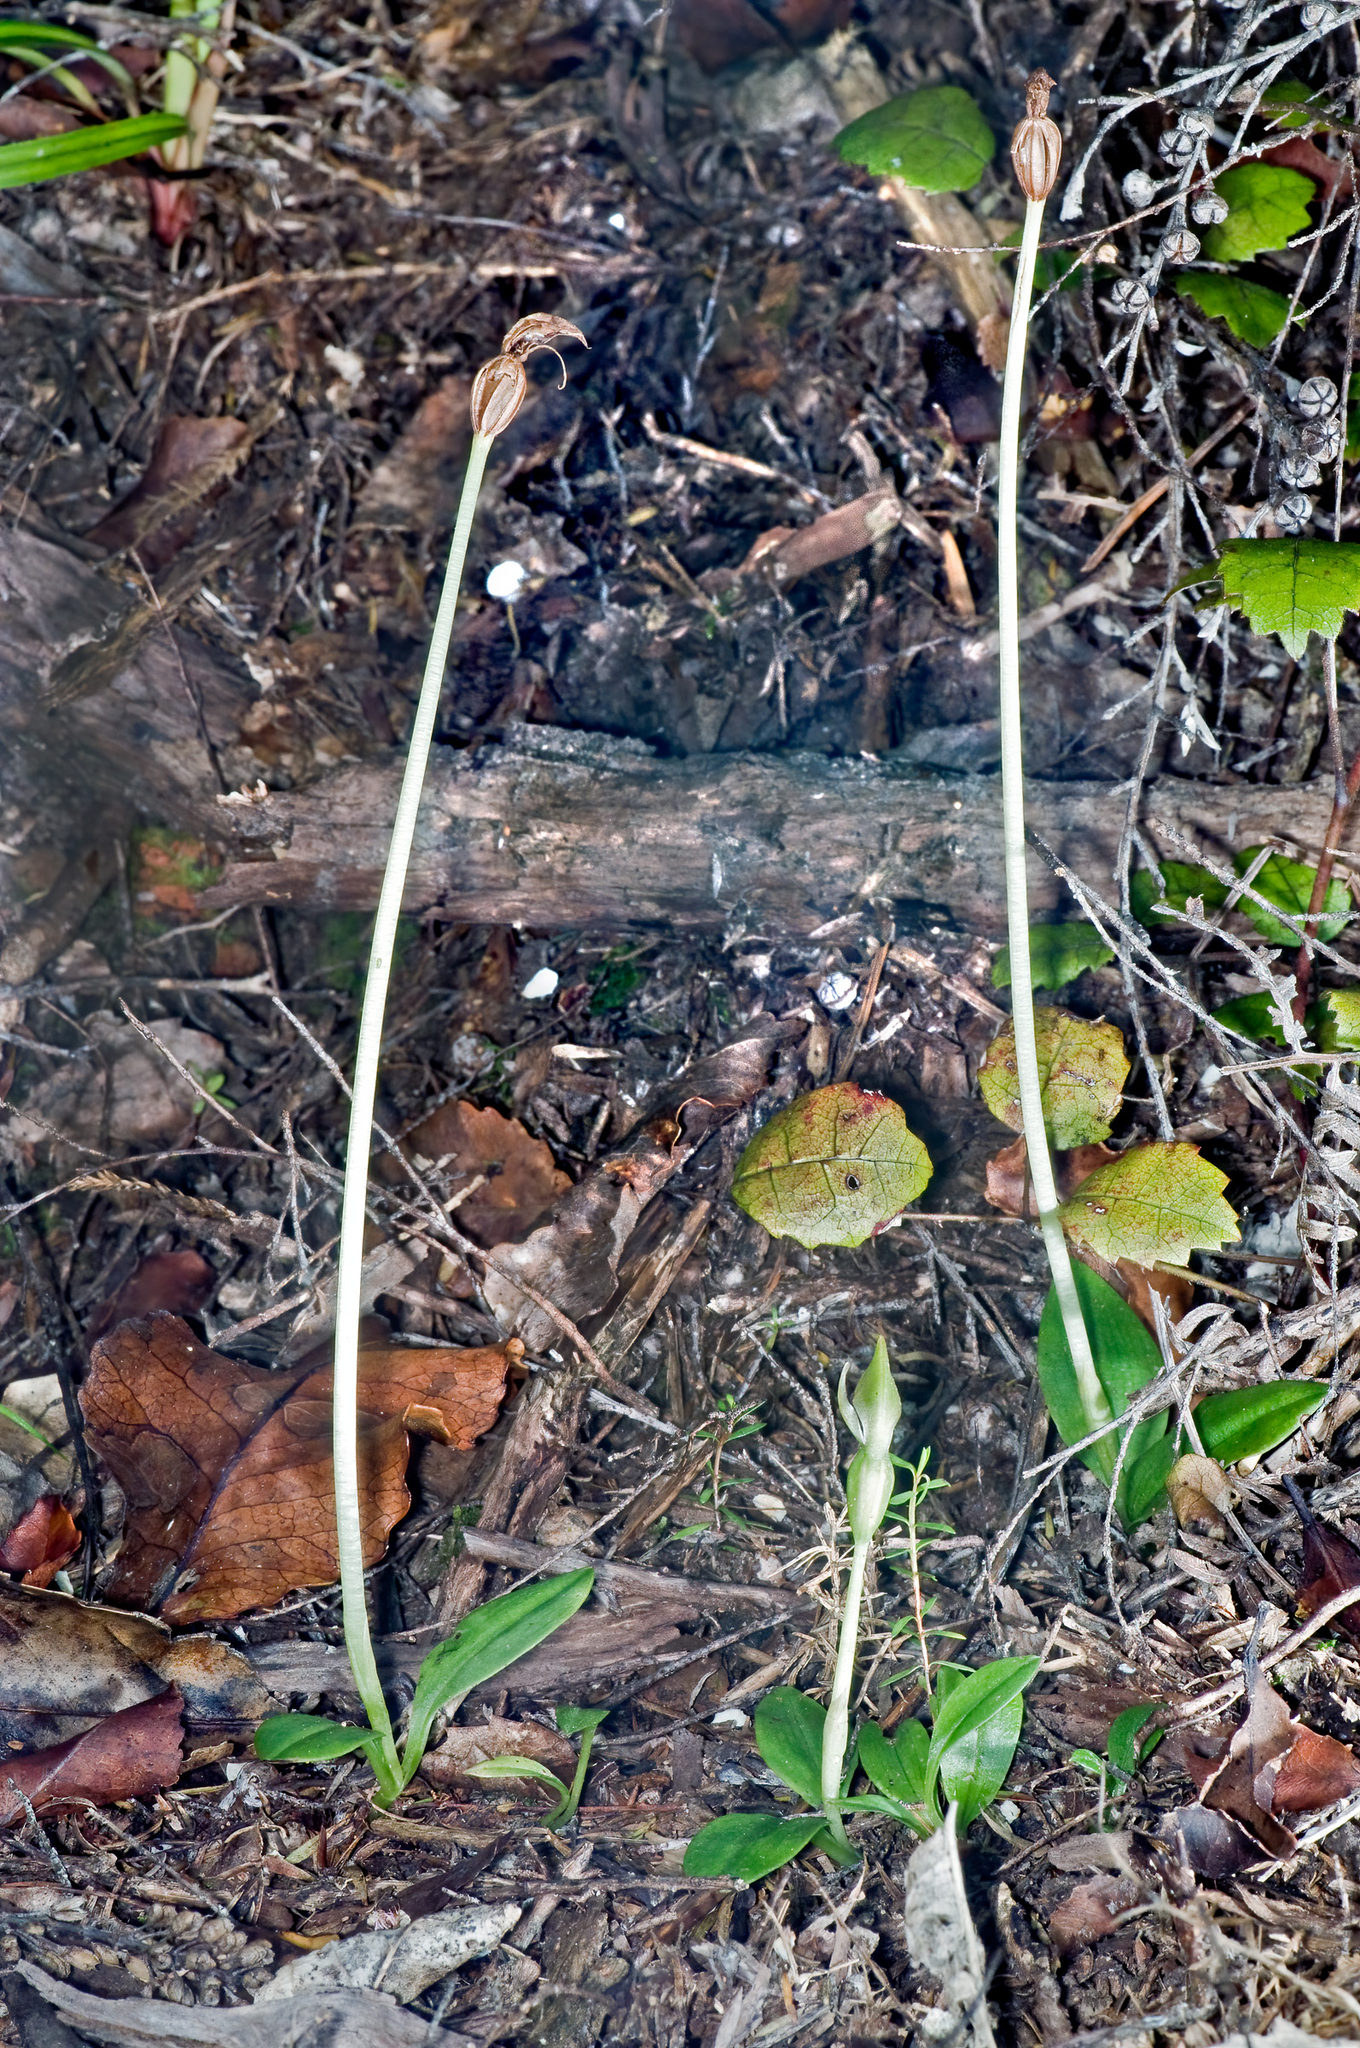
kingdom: Plantae
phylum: Tracheophyta
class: Liliopsida
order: Asparagales
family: Orchidaceae
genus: Chiloglottis
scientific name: Chiloglottis cornuta
